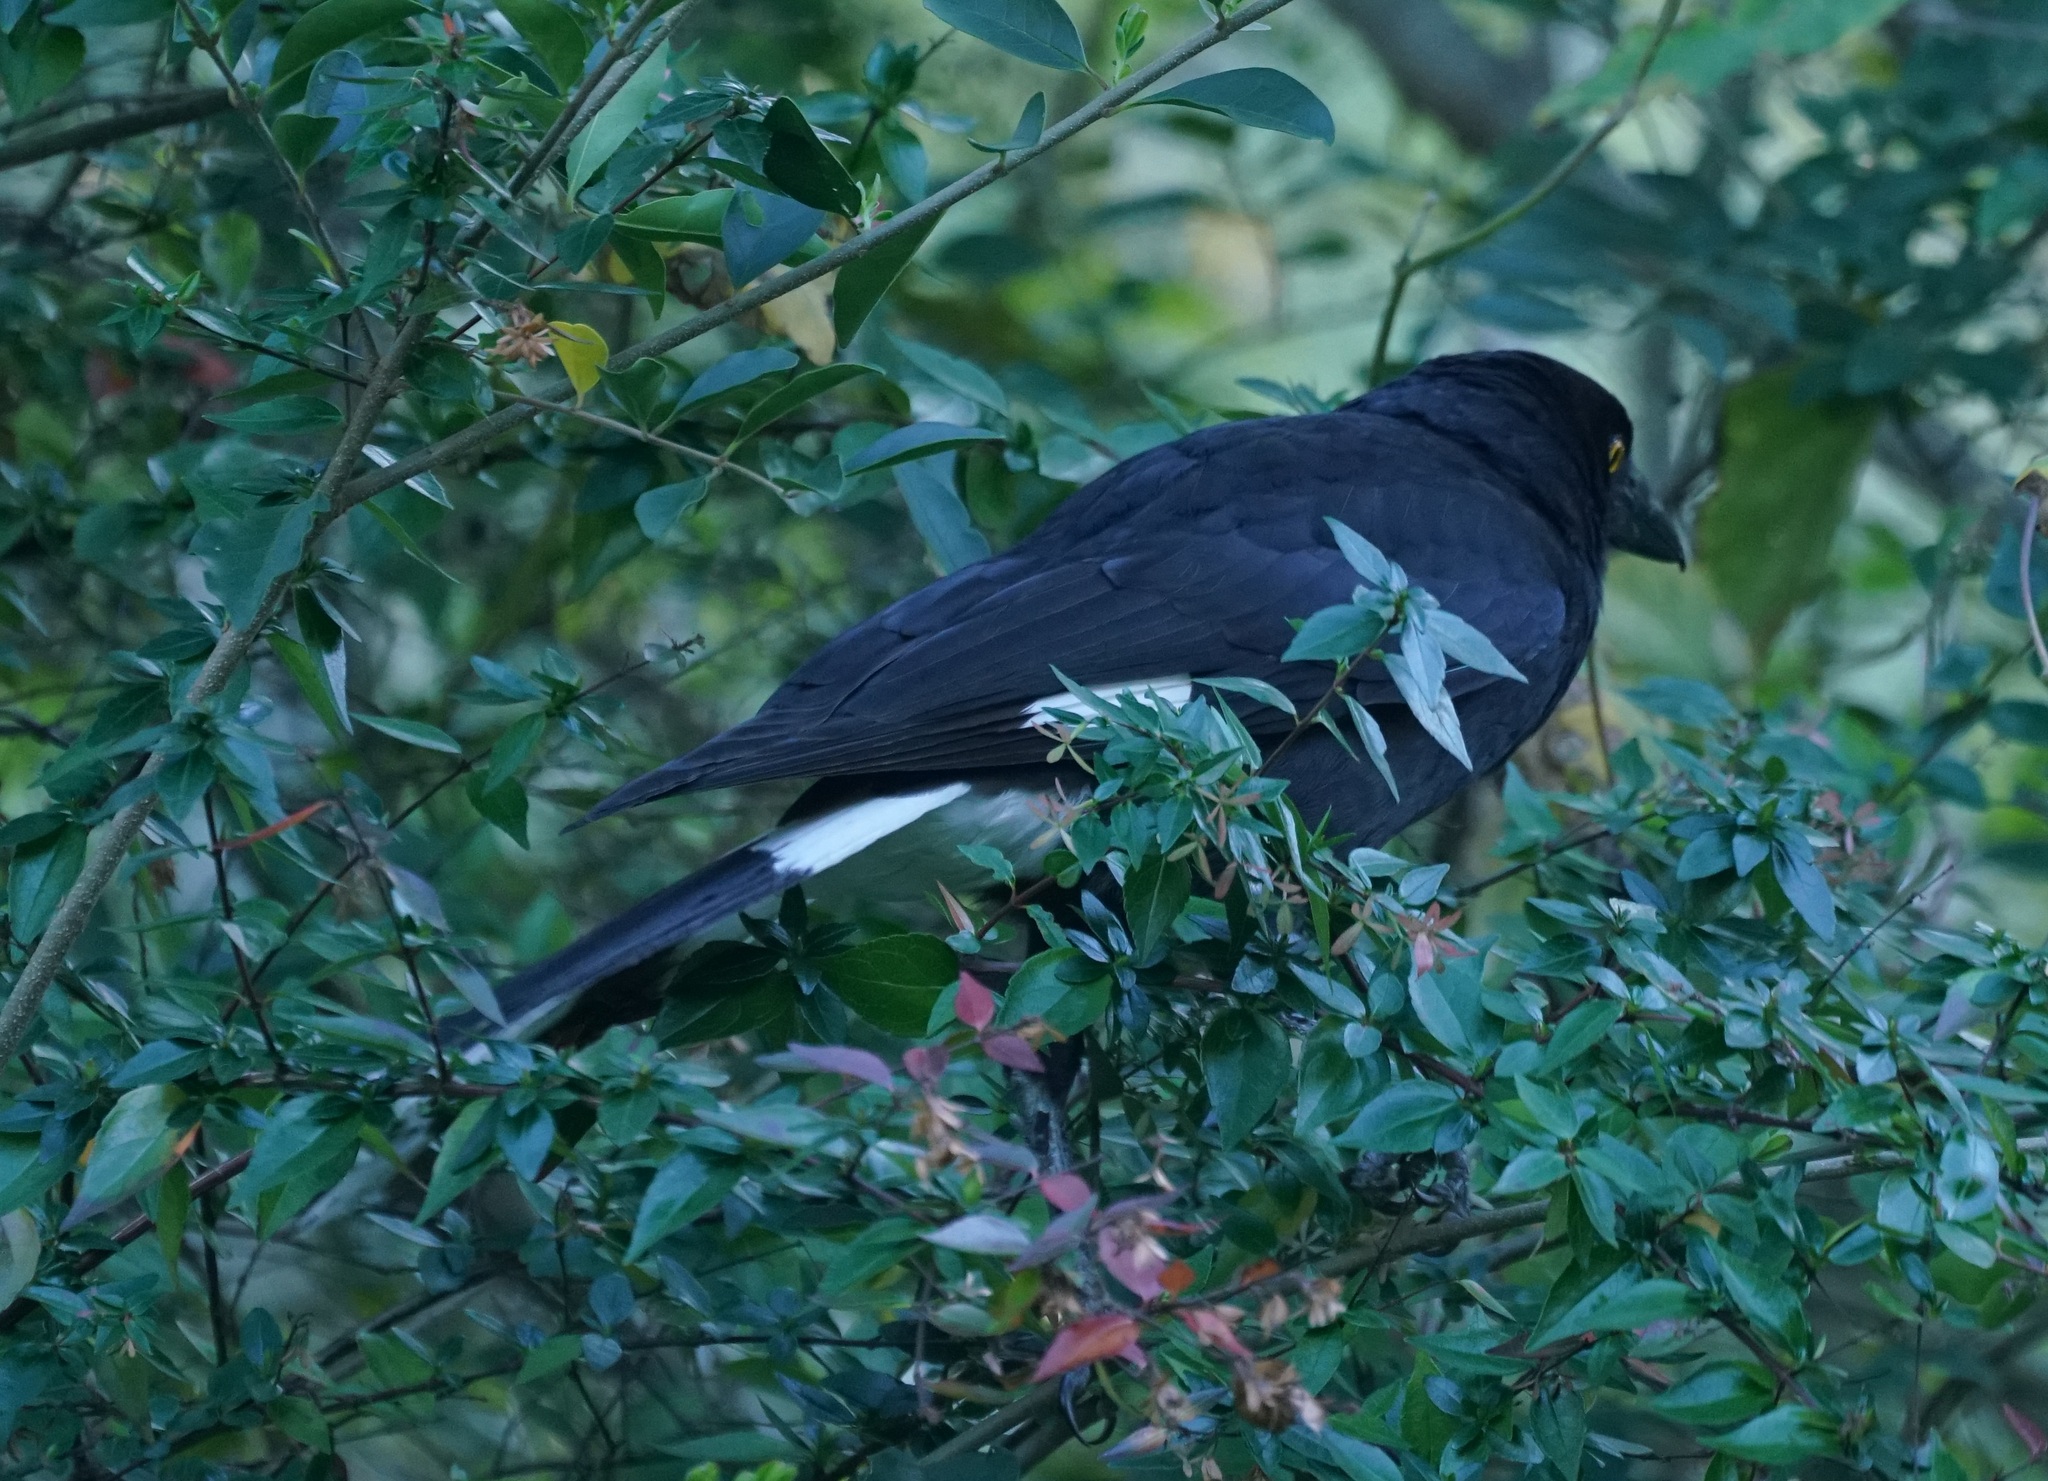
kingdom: Animalia
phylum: Chordata
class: Aves
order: Passeriformes
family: Cracticidae
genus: Strepera
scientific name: Strepera graculina
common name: Pied currawong
